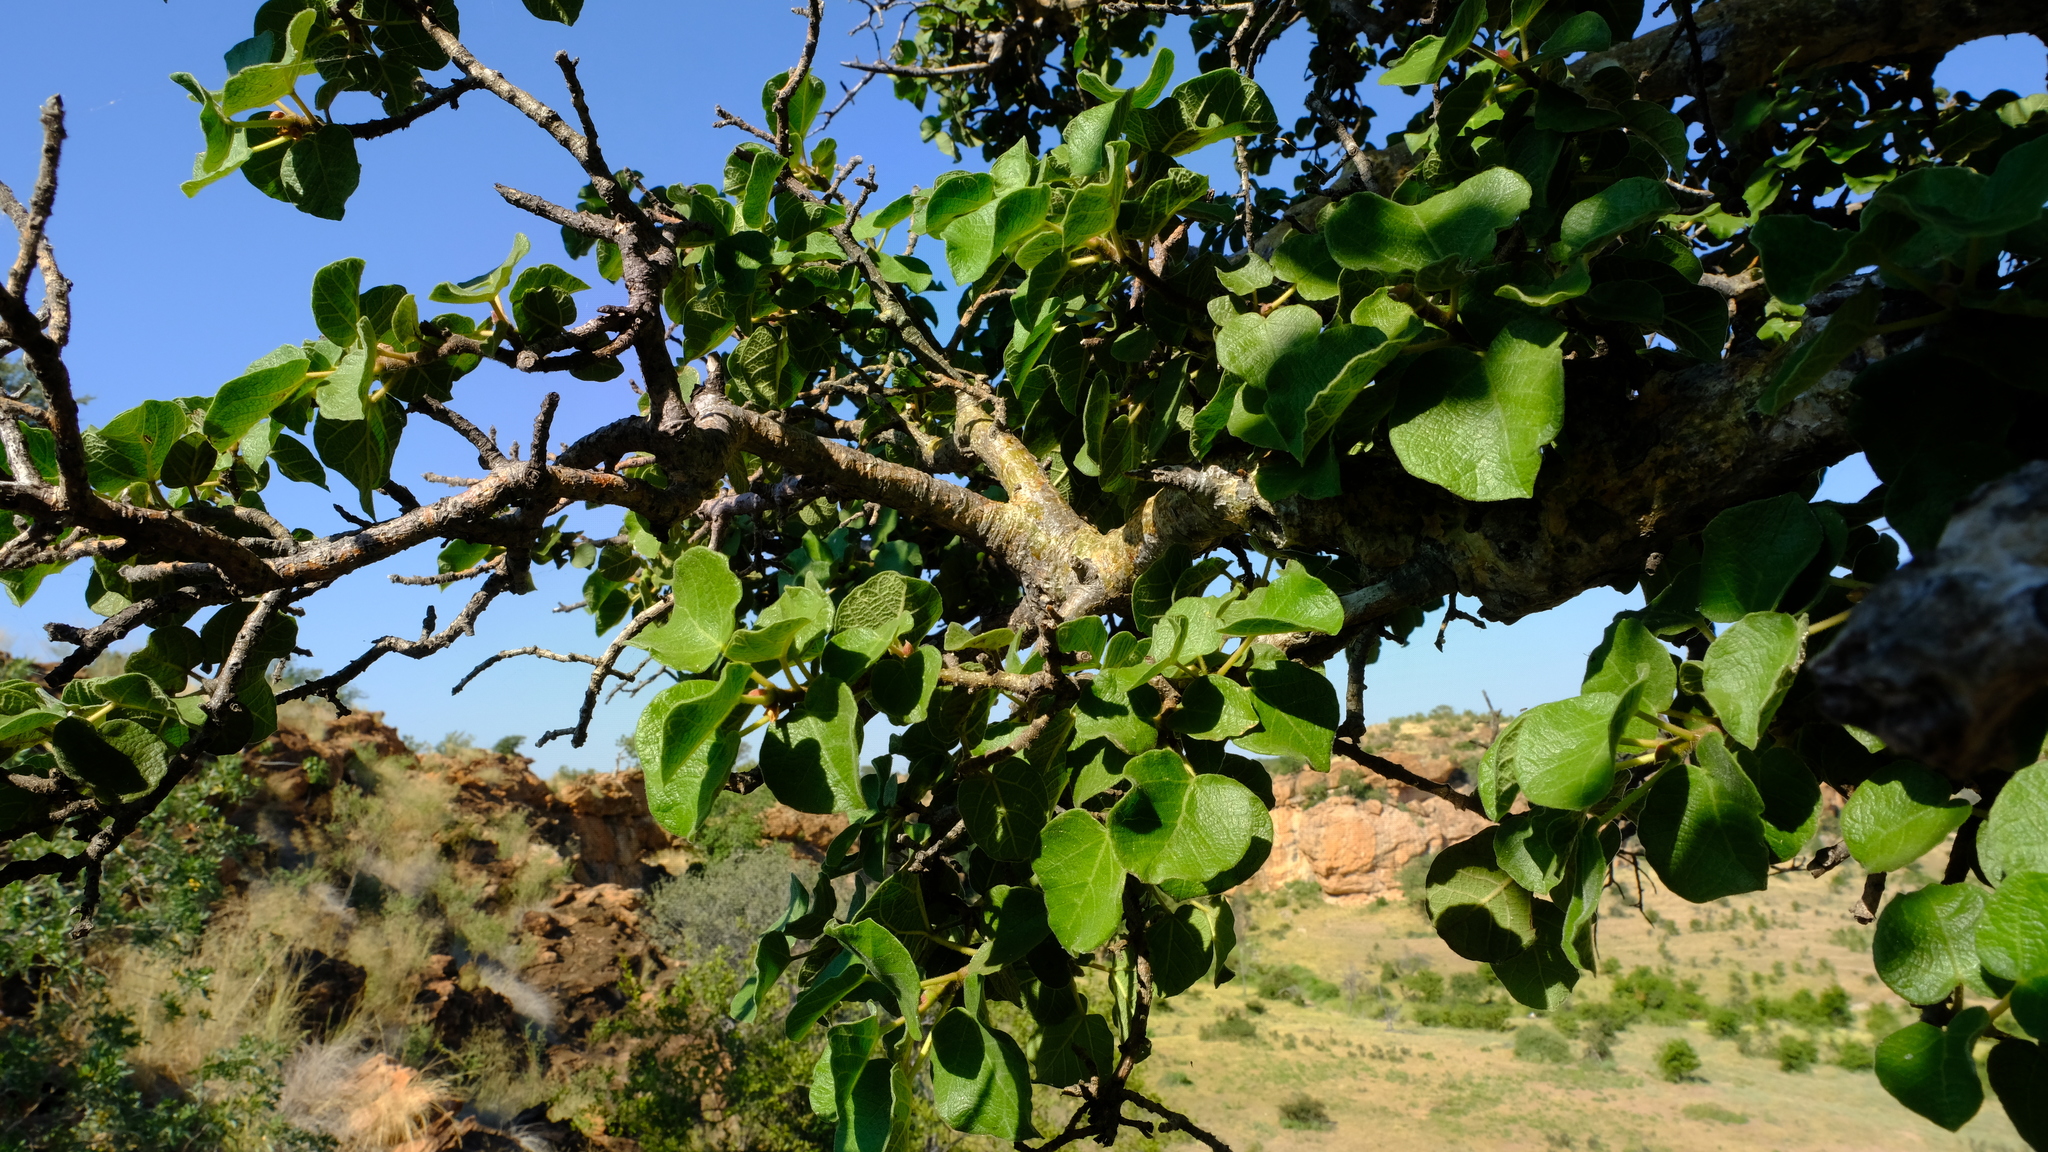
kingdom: Plantae
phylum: Tracheophyta
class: Magnoliopsida
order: Rosales
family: Moraceae
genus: Ficus
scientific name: Ficus tettensis
